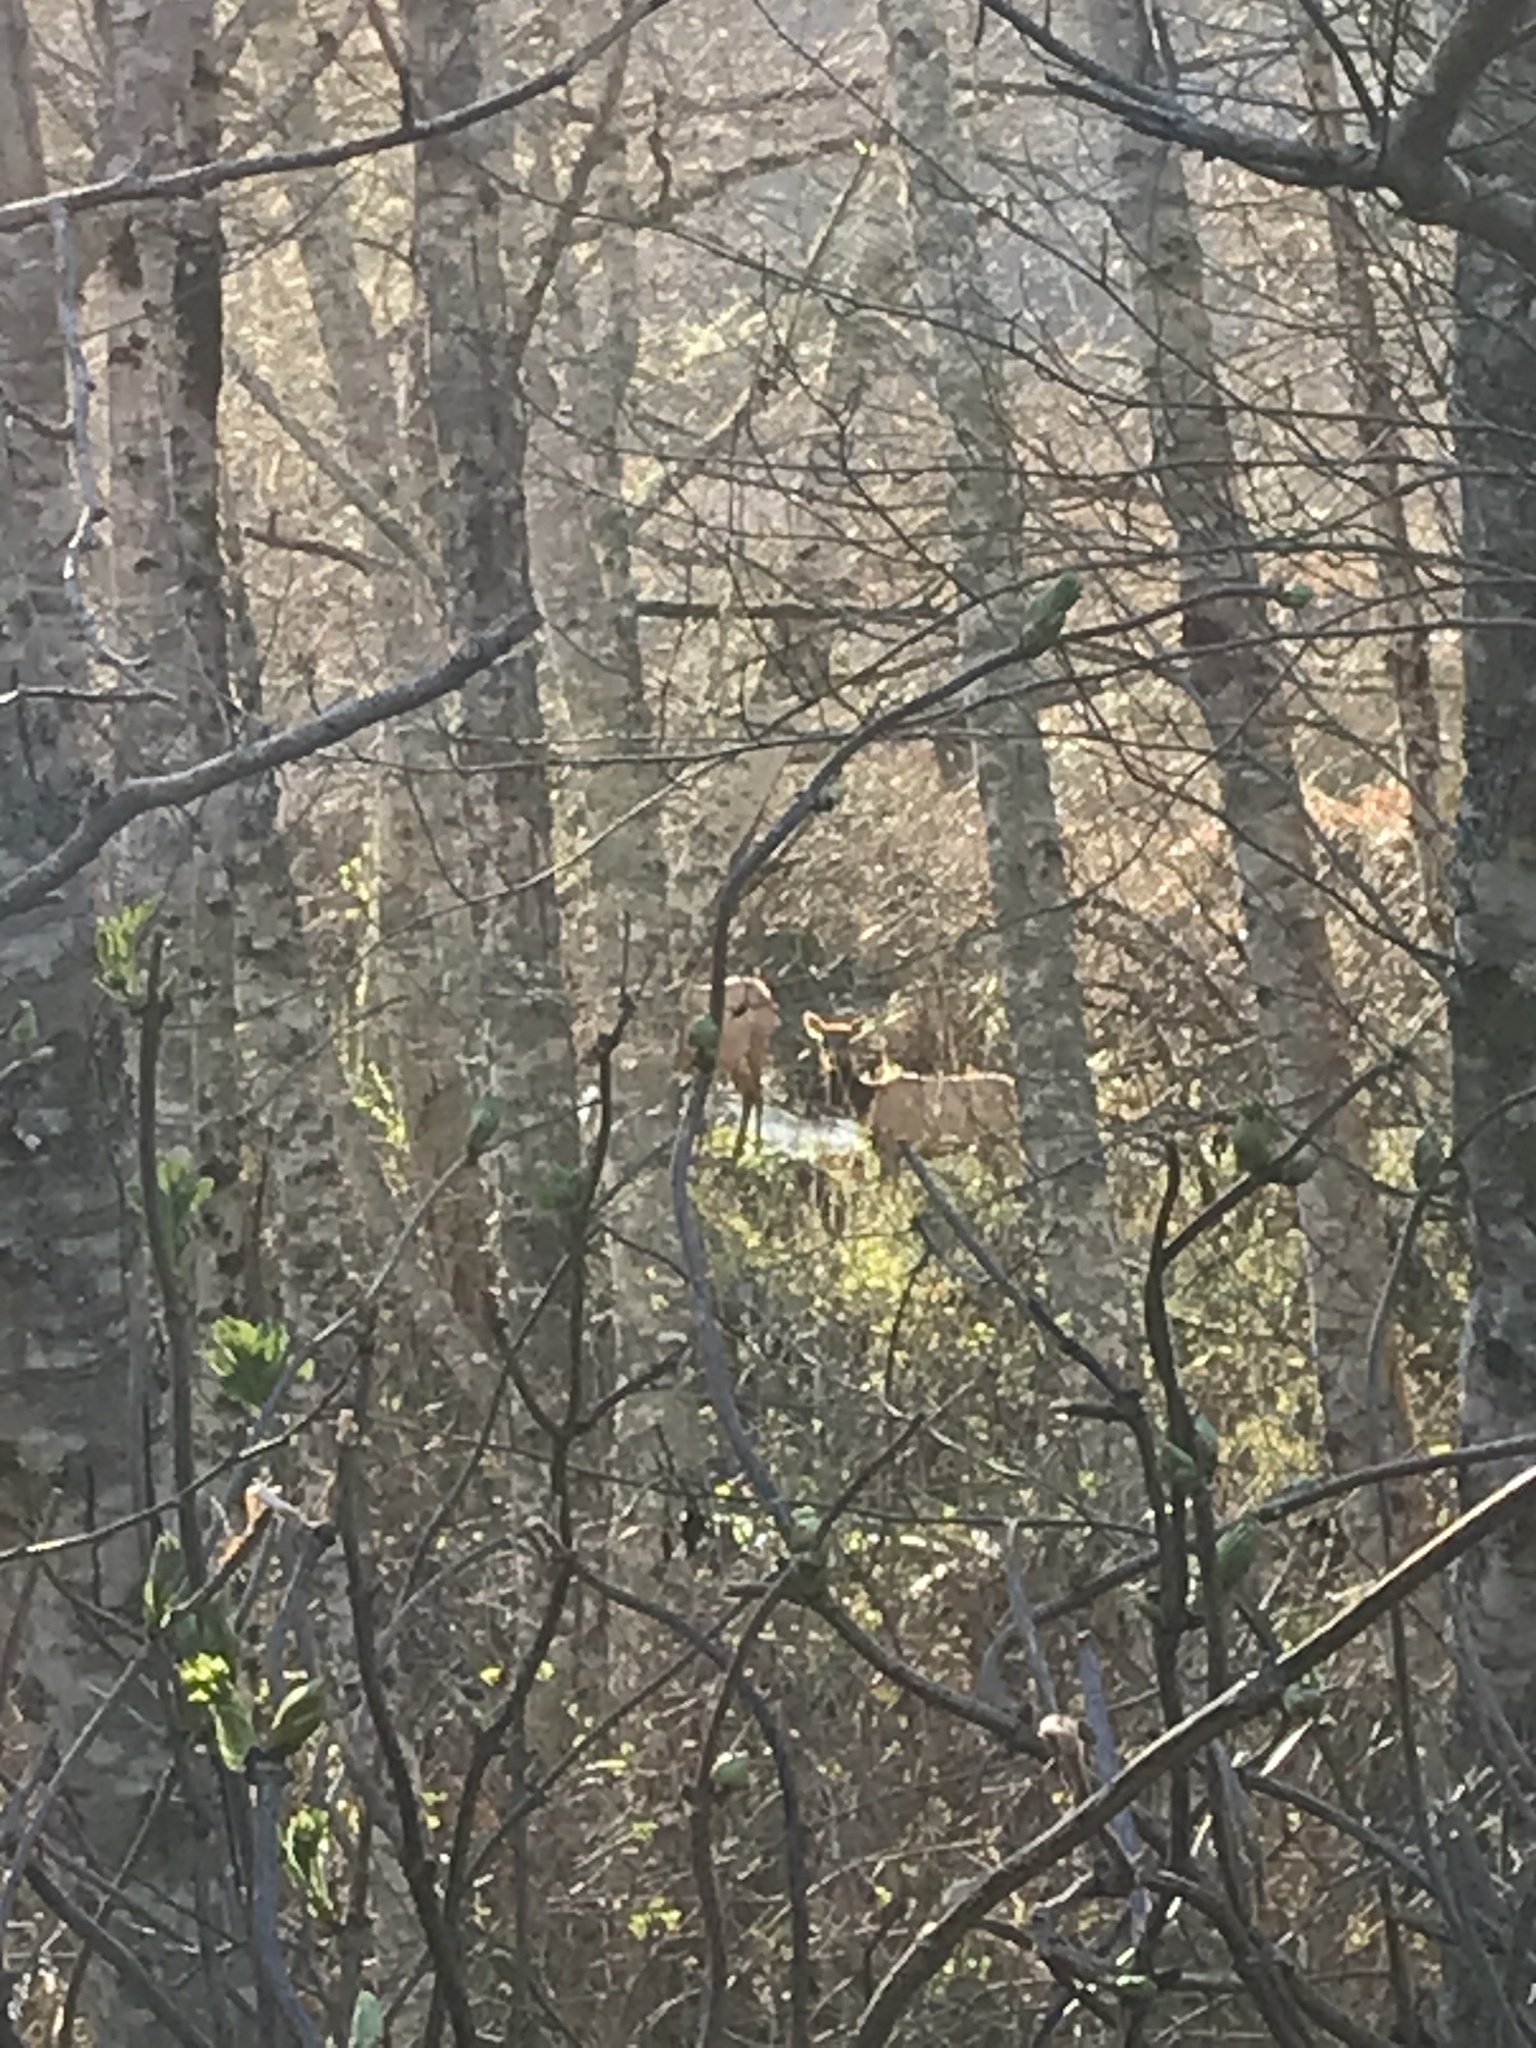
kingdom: Animalia
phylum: Chordata
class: Mammalia
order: Artiodactyla
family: Cervidae
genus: Cervus
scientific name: Cervus elaphus
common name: Red deer
